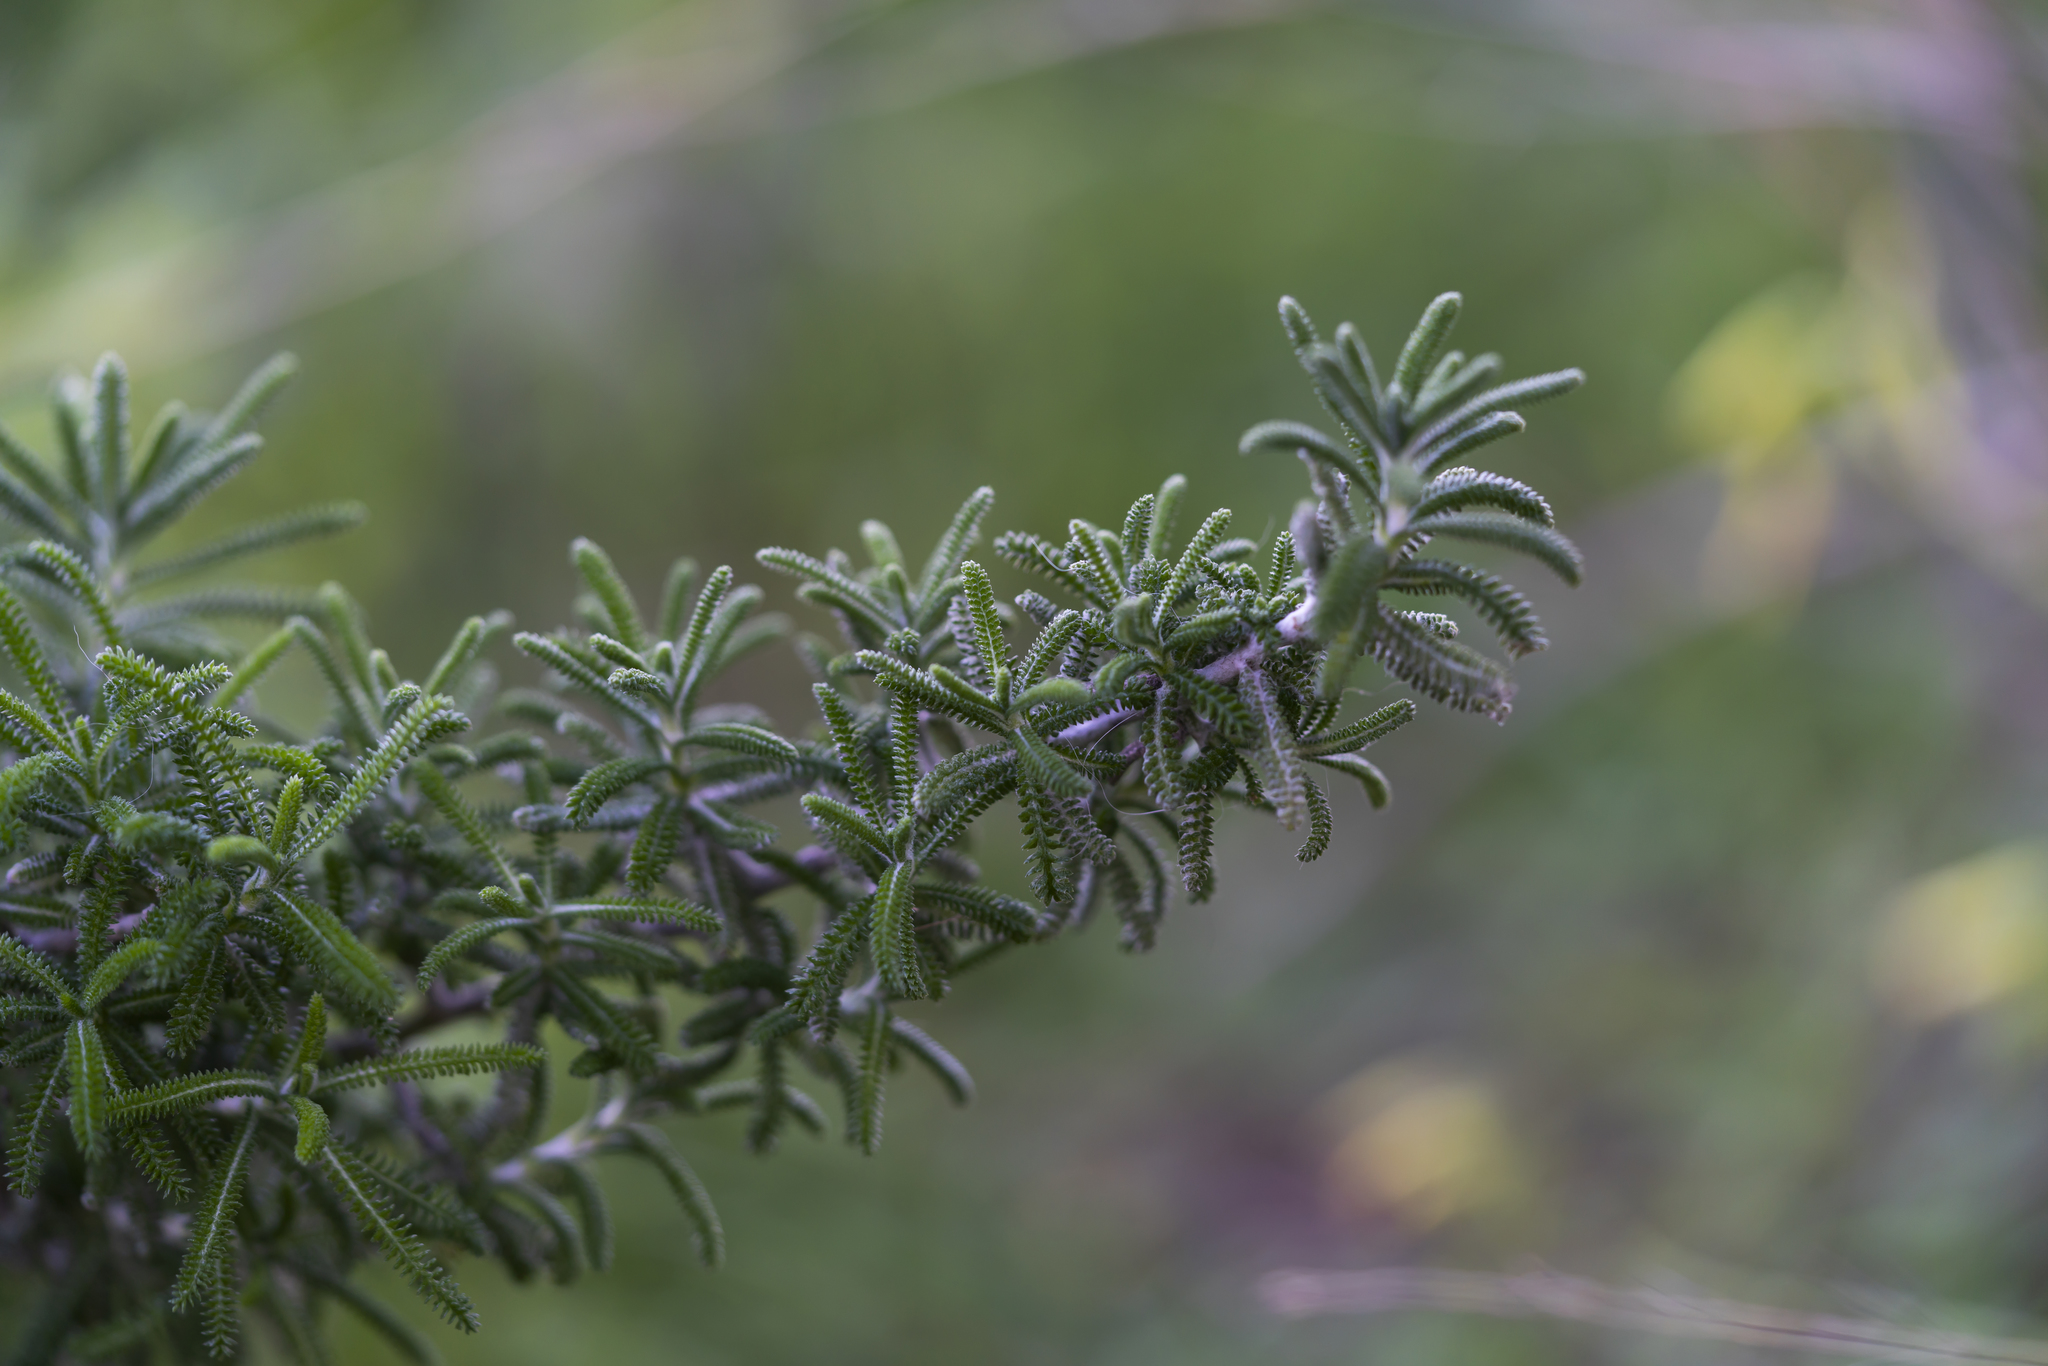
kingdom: Plantae
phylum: Tracheophyta
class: Magnoliopsida
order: Asterales
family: Asteraceae
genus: Achillea
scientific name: Achillea cretica
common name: Chamomile-leaved lavender-cotton
